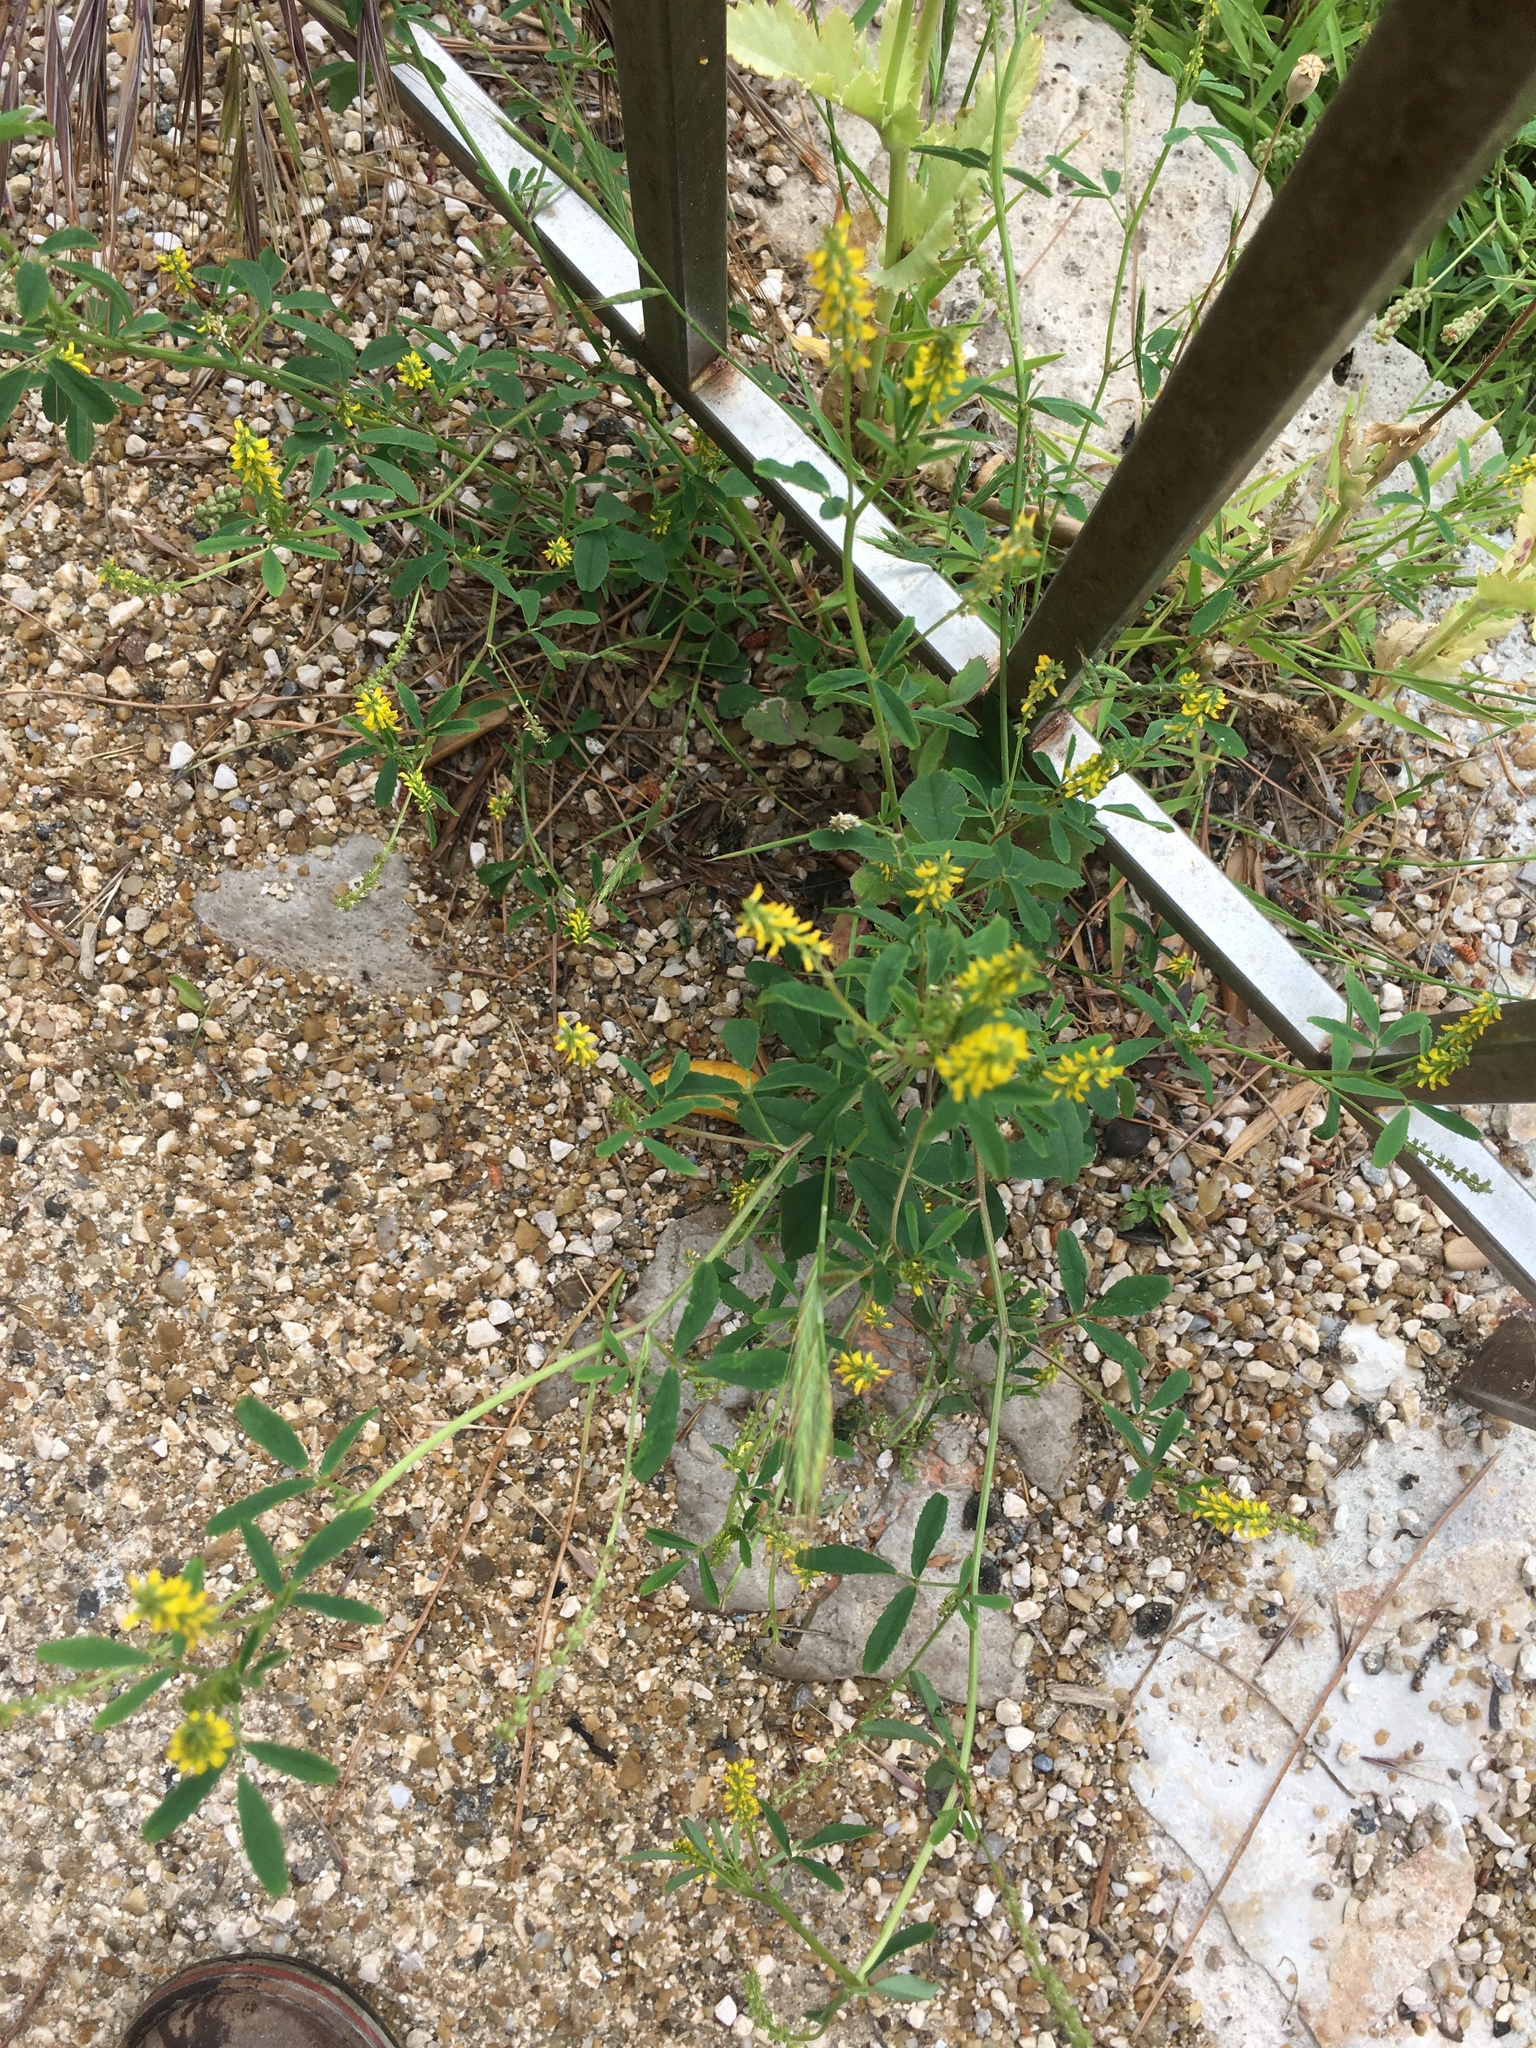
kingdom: Plantae
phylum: Tracheophyta
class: Magnoliopsida
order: Fabales
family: Fabaceae
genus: Melilotus
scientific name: Melilotus officinalis
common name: Sweetclover
